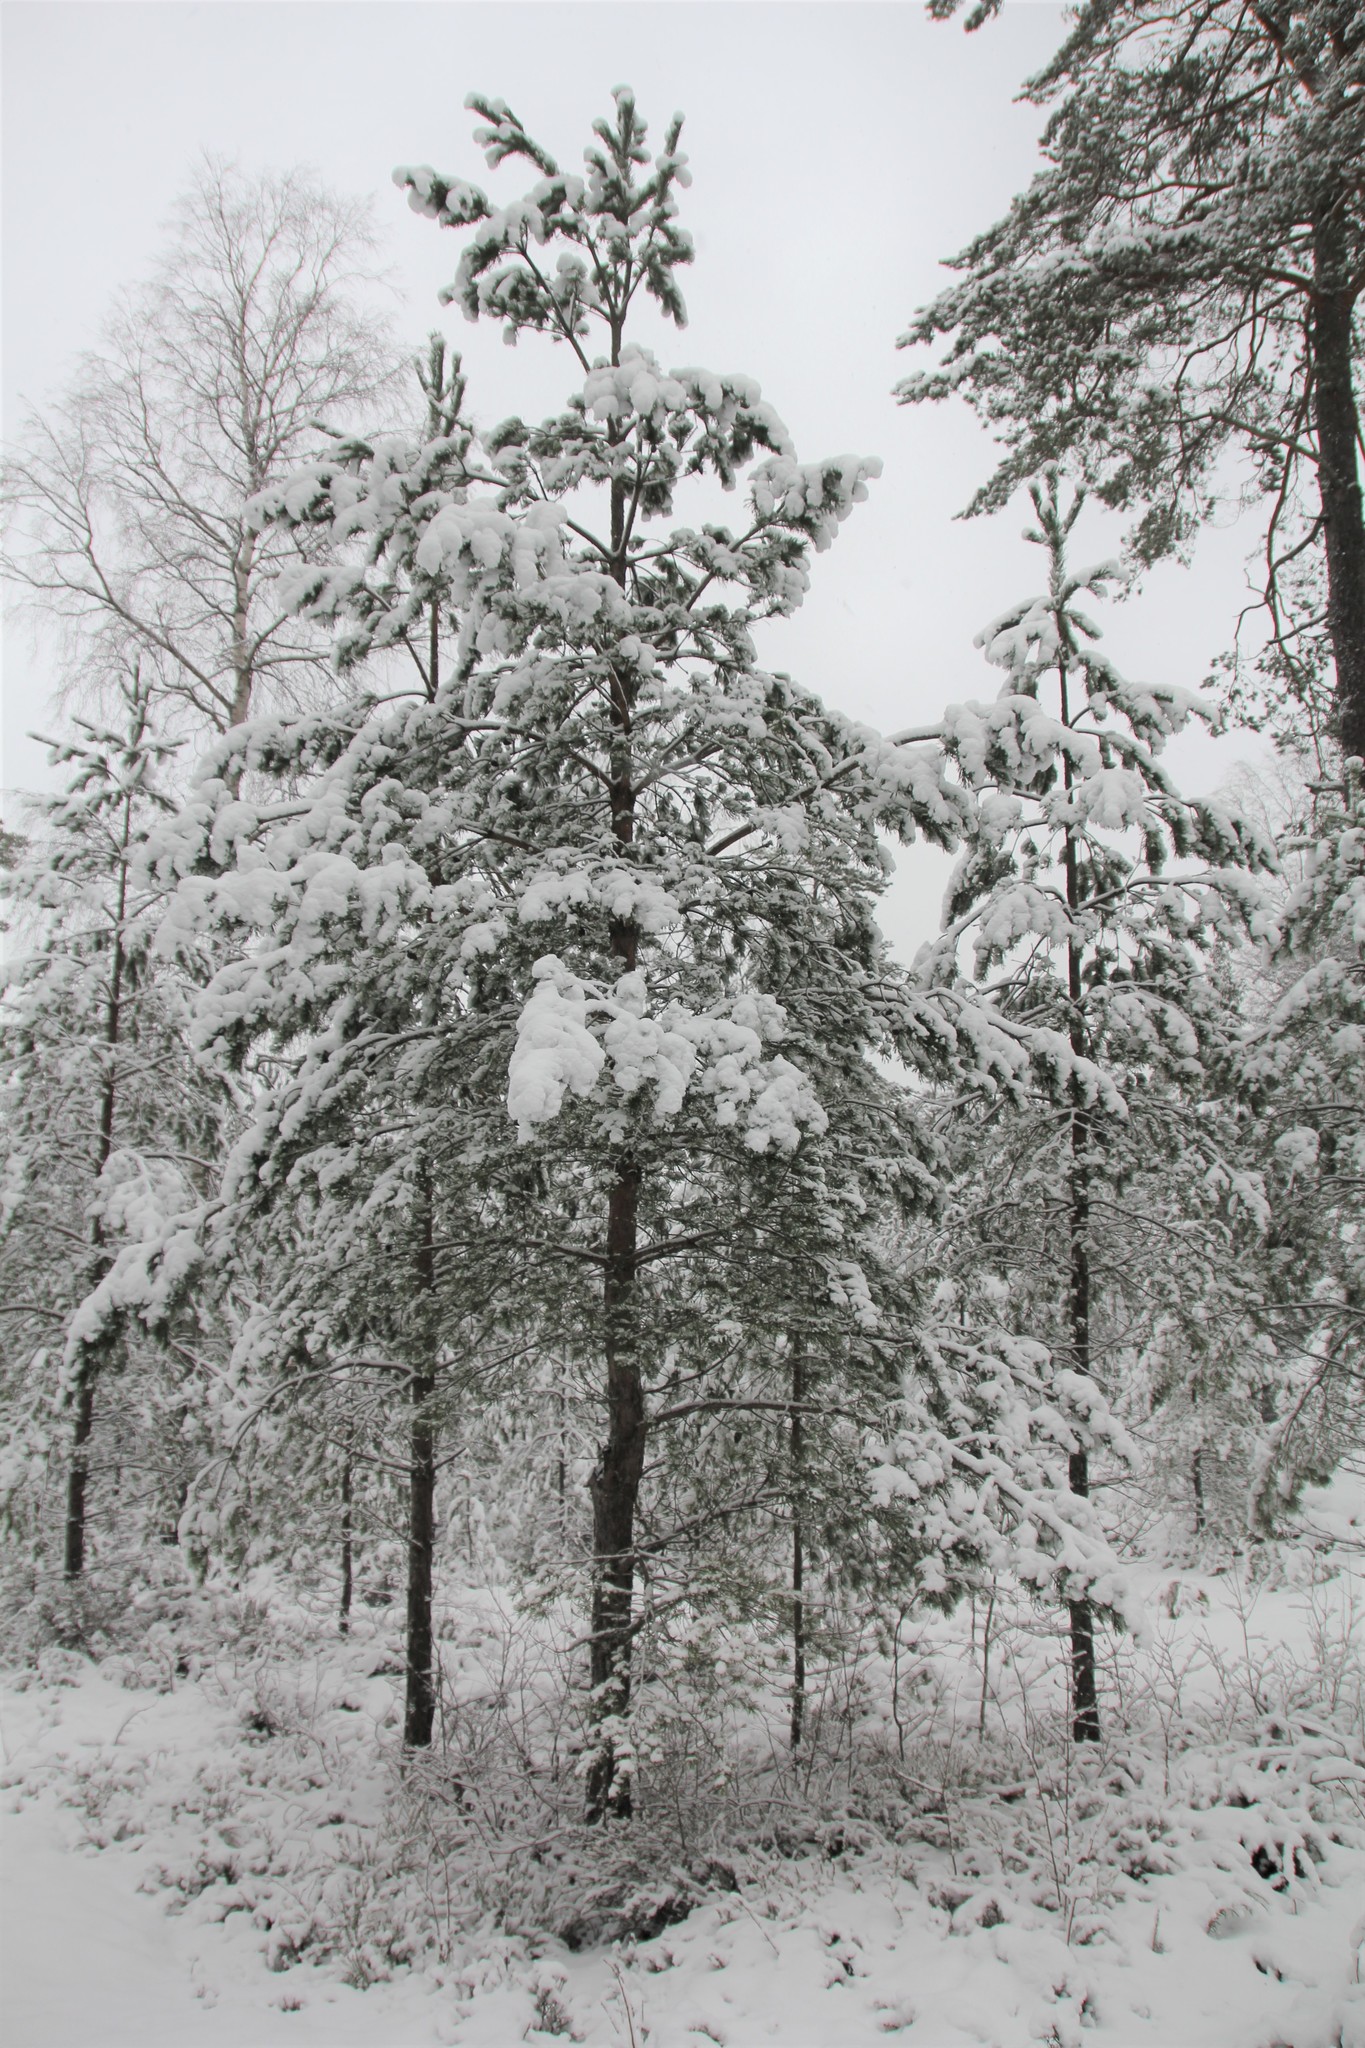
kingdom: Plantae
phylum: Tracheophyta
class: Pinopsida
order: Pinales
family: Pinaceae
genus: Pinus
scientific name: Pinus sylvestris
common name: Scots pine
